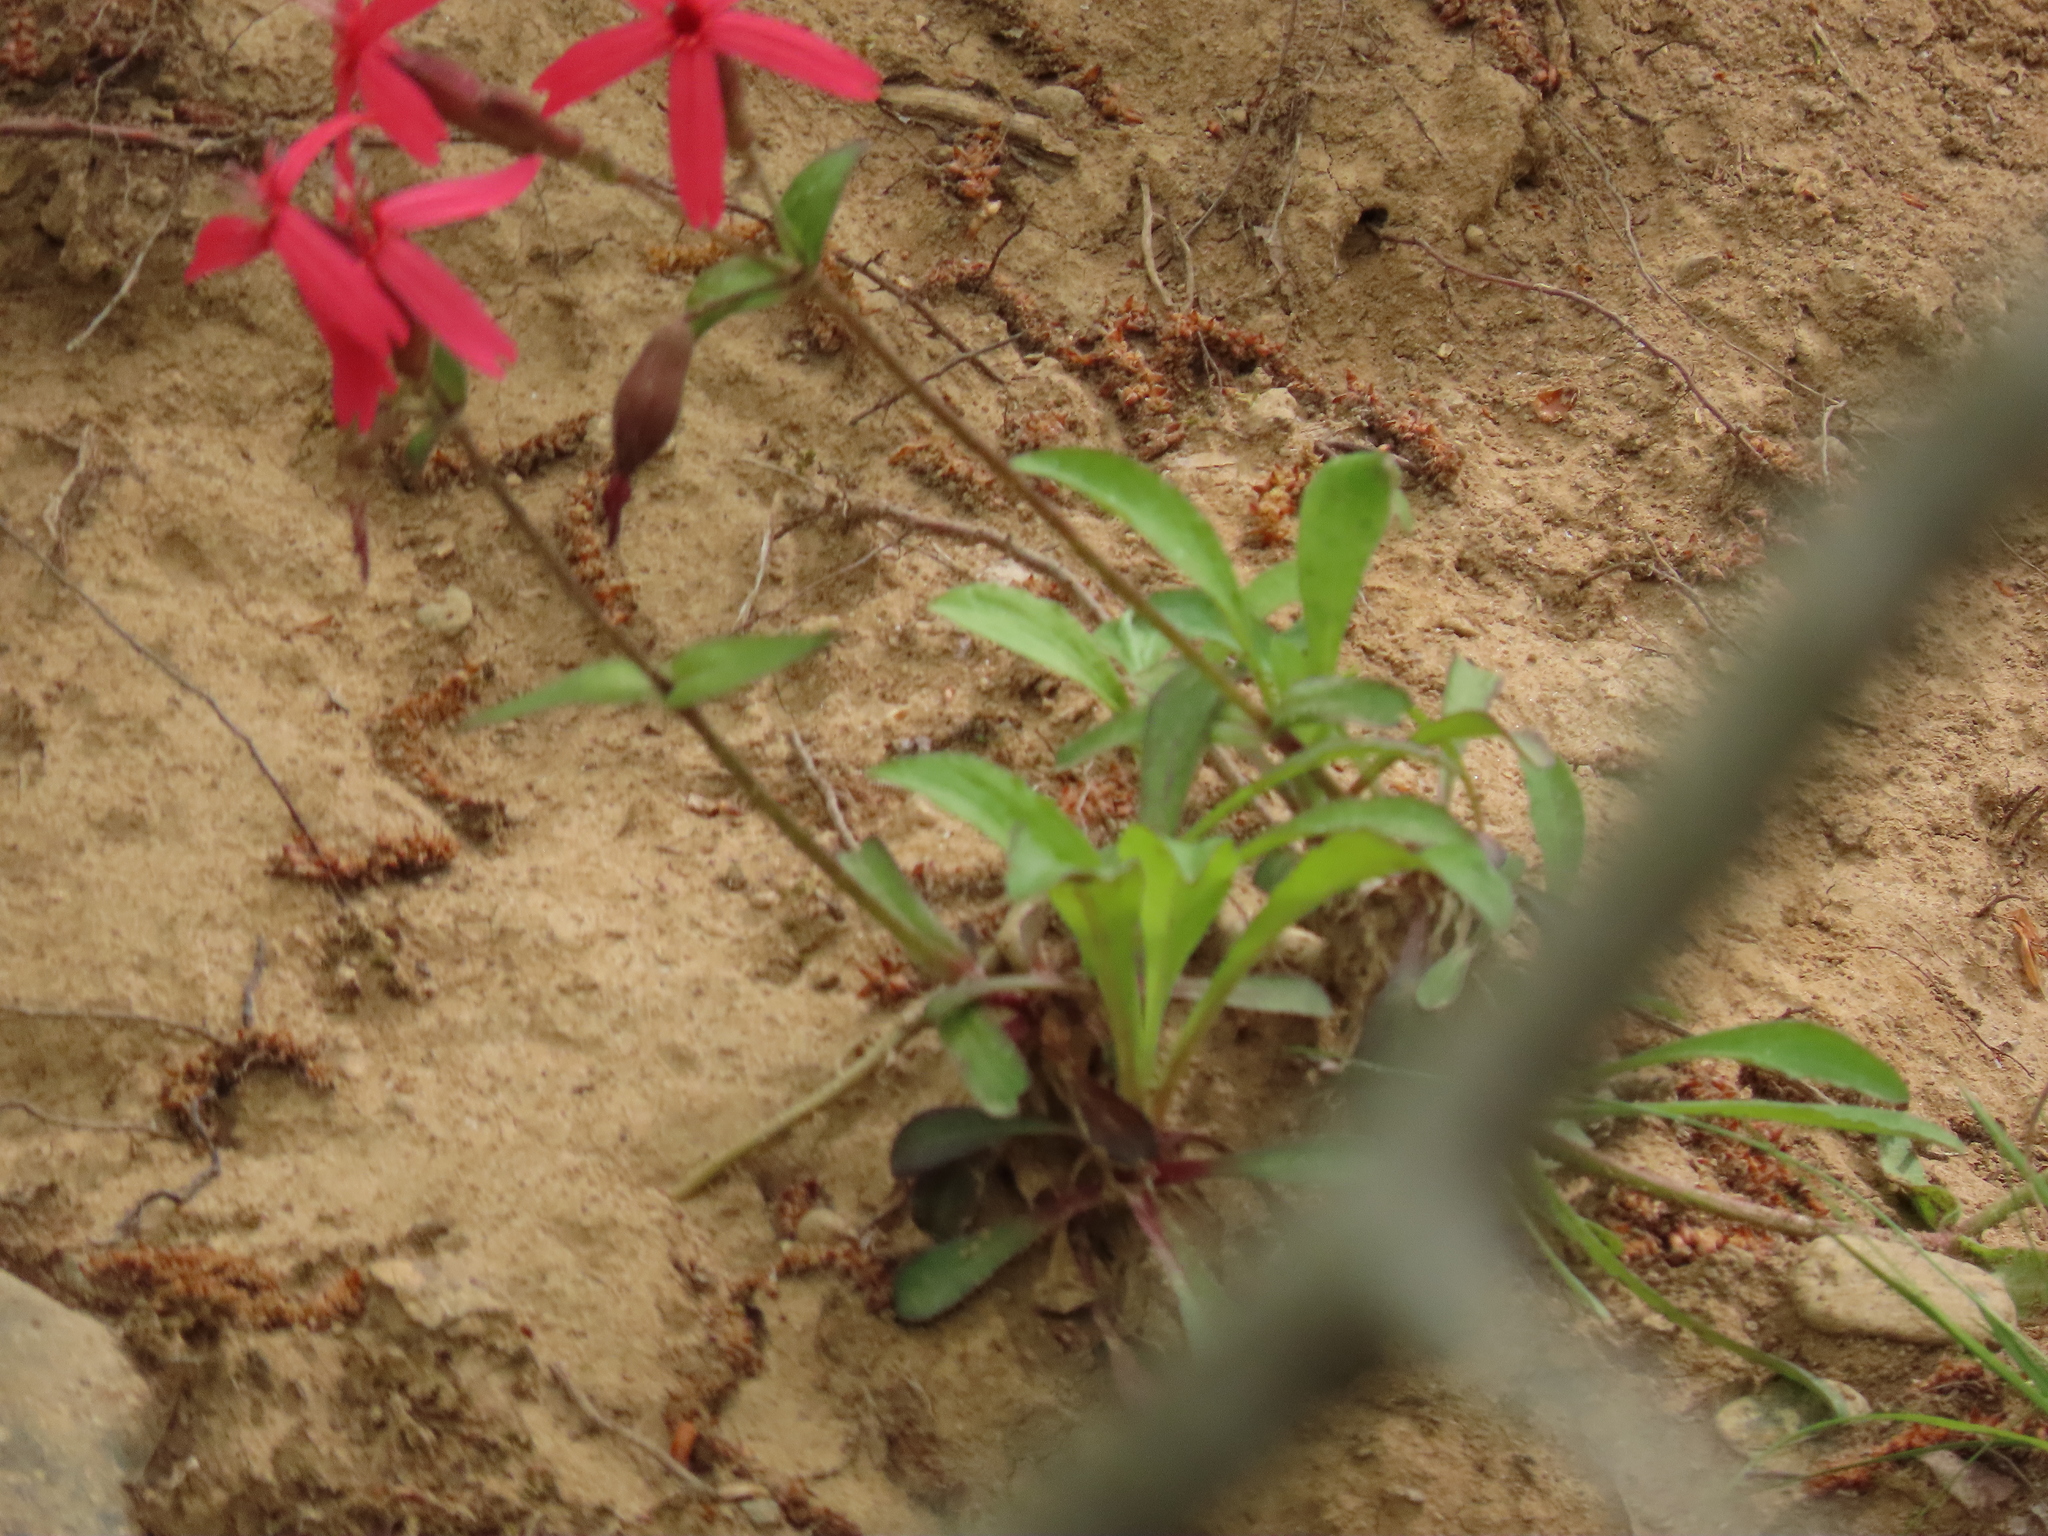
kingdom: Plantae
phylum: Tracheophyta
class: Magnoliopsida
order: Caryophyllales
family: Caryophyllaceae
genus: Silene
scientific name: Silene virginica
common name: Fire-pink
